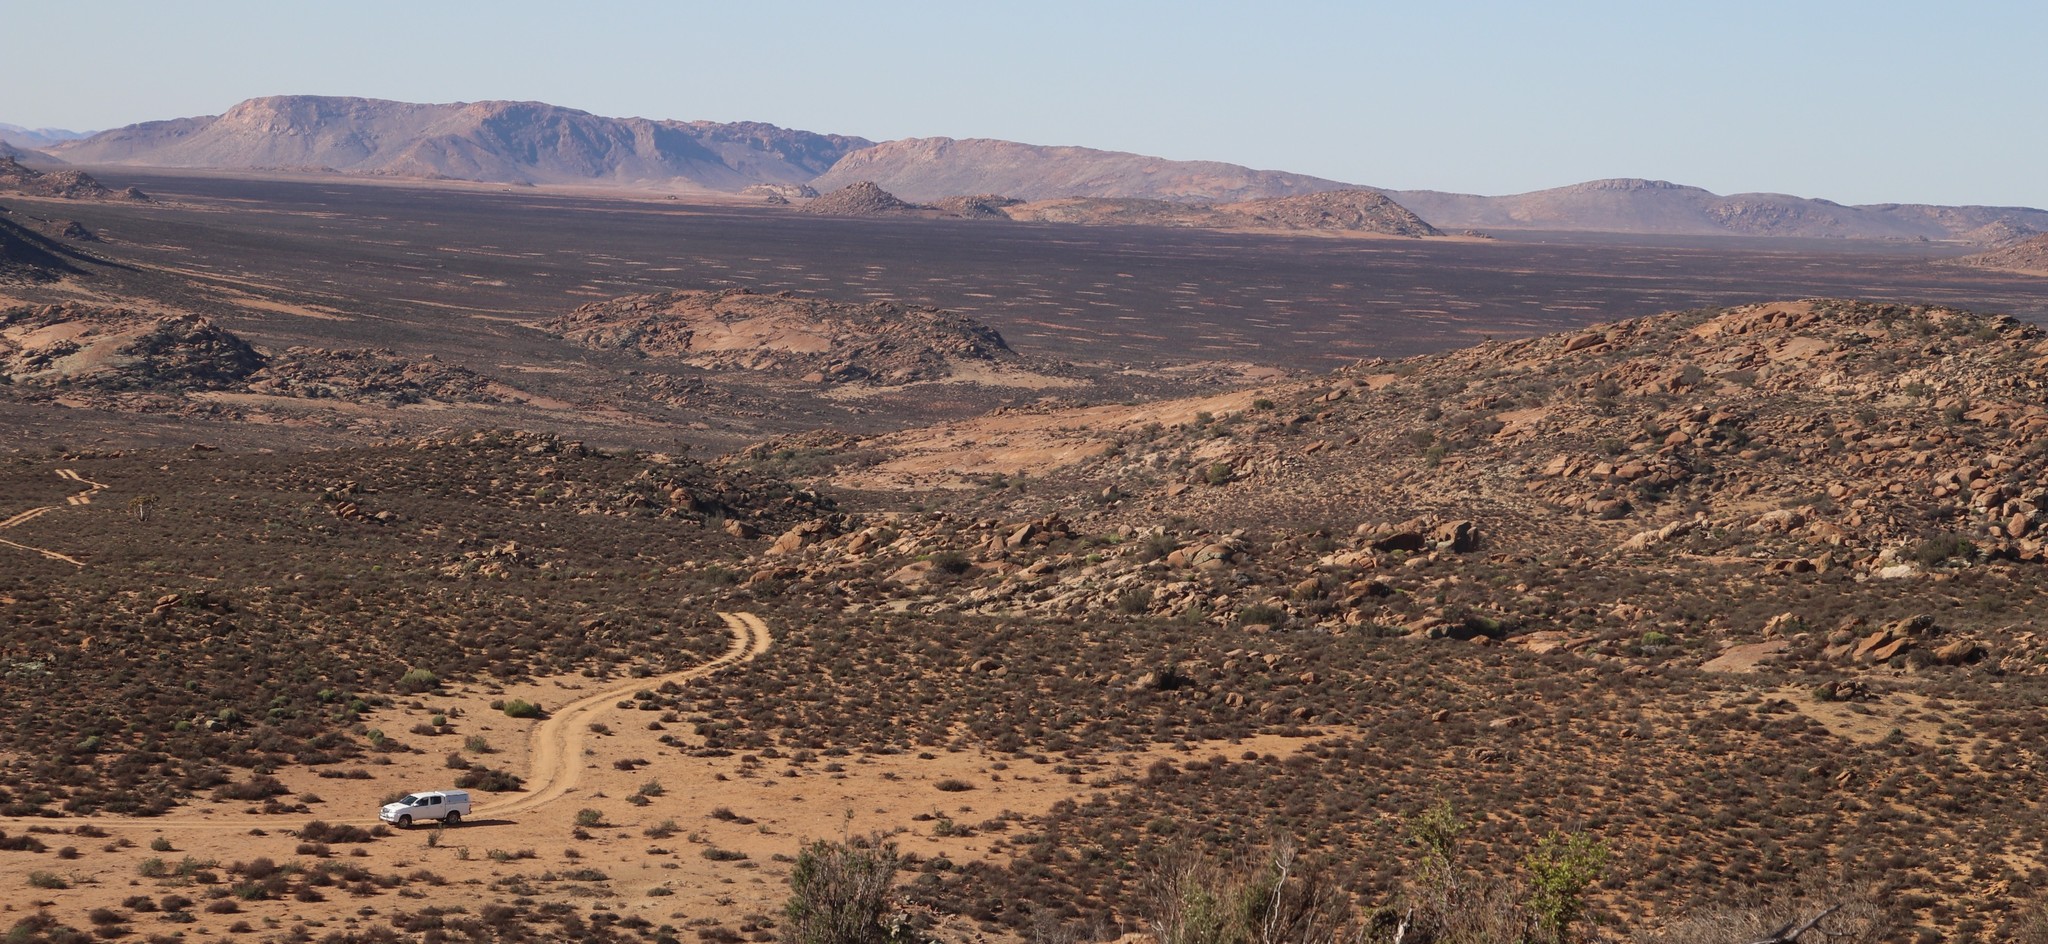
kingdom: Animalia
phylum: Arthropoda
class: Insecta
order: Blattodea
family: Hodotermitidae
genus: Microhodotermes
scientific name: Microhodotermes viator
